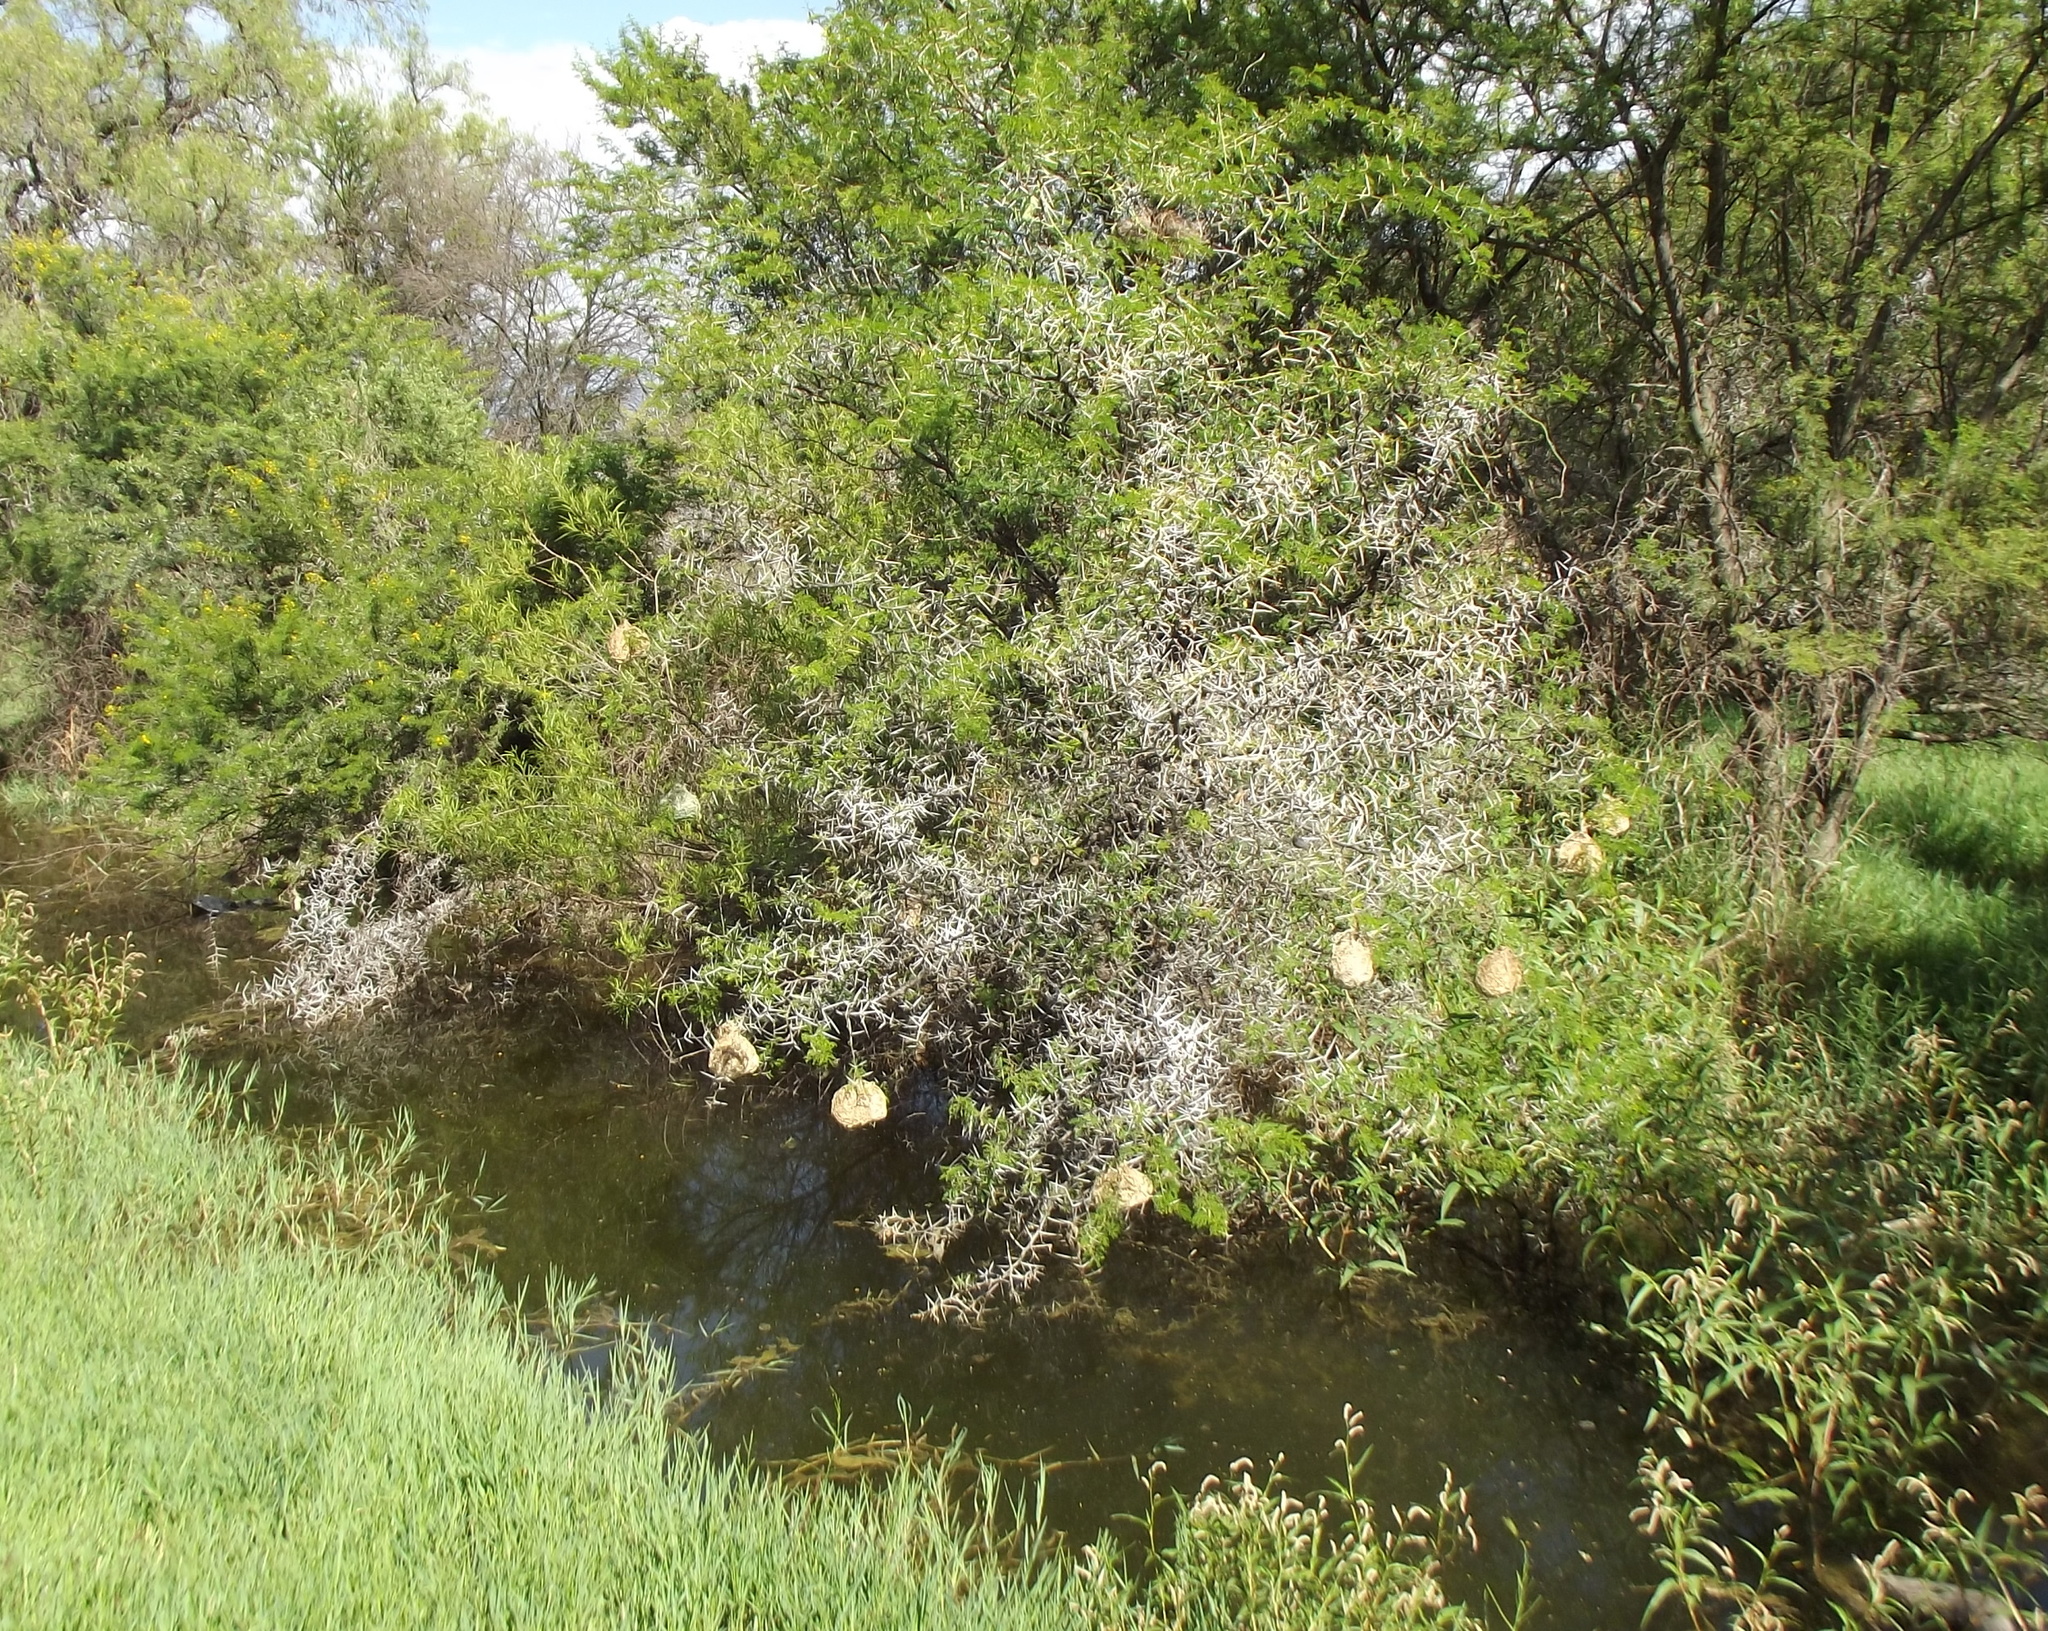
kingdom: Animalia
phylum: Chordata
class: Aves
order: Passeriformes
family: Ploceidae
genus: Ploceus
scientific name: Ploceus velatus
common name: Southern masked weaver
